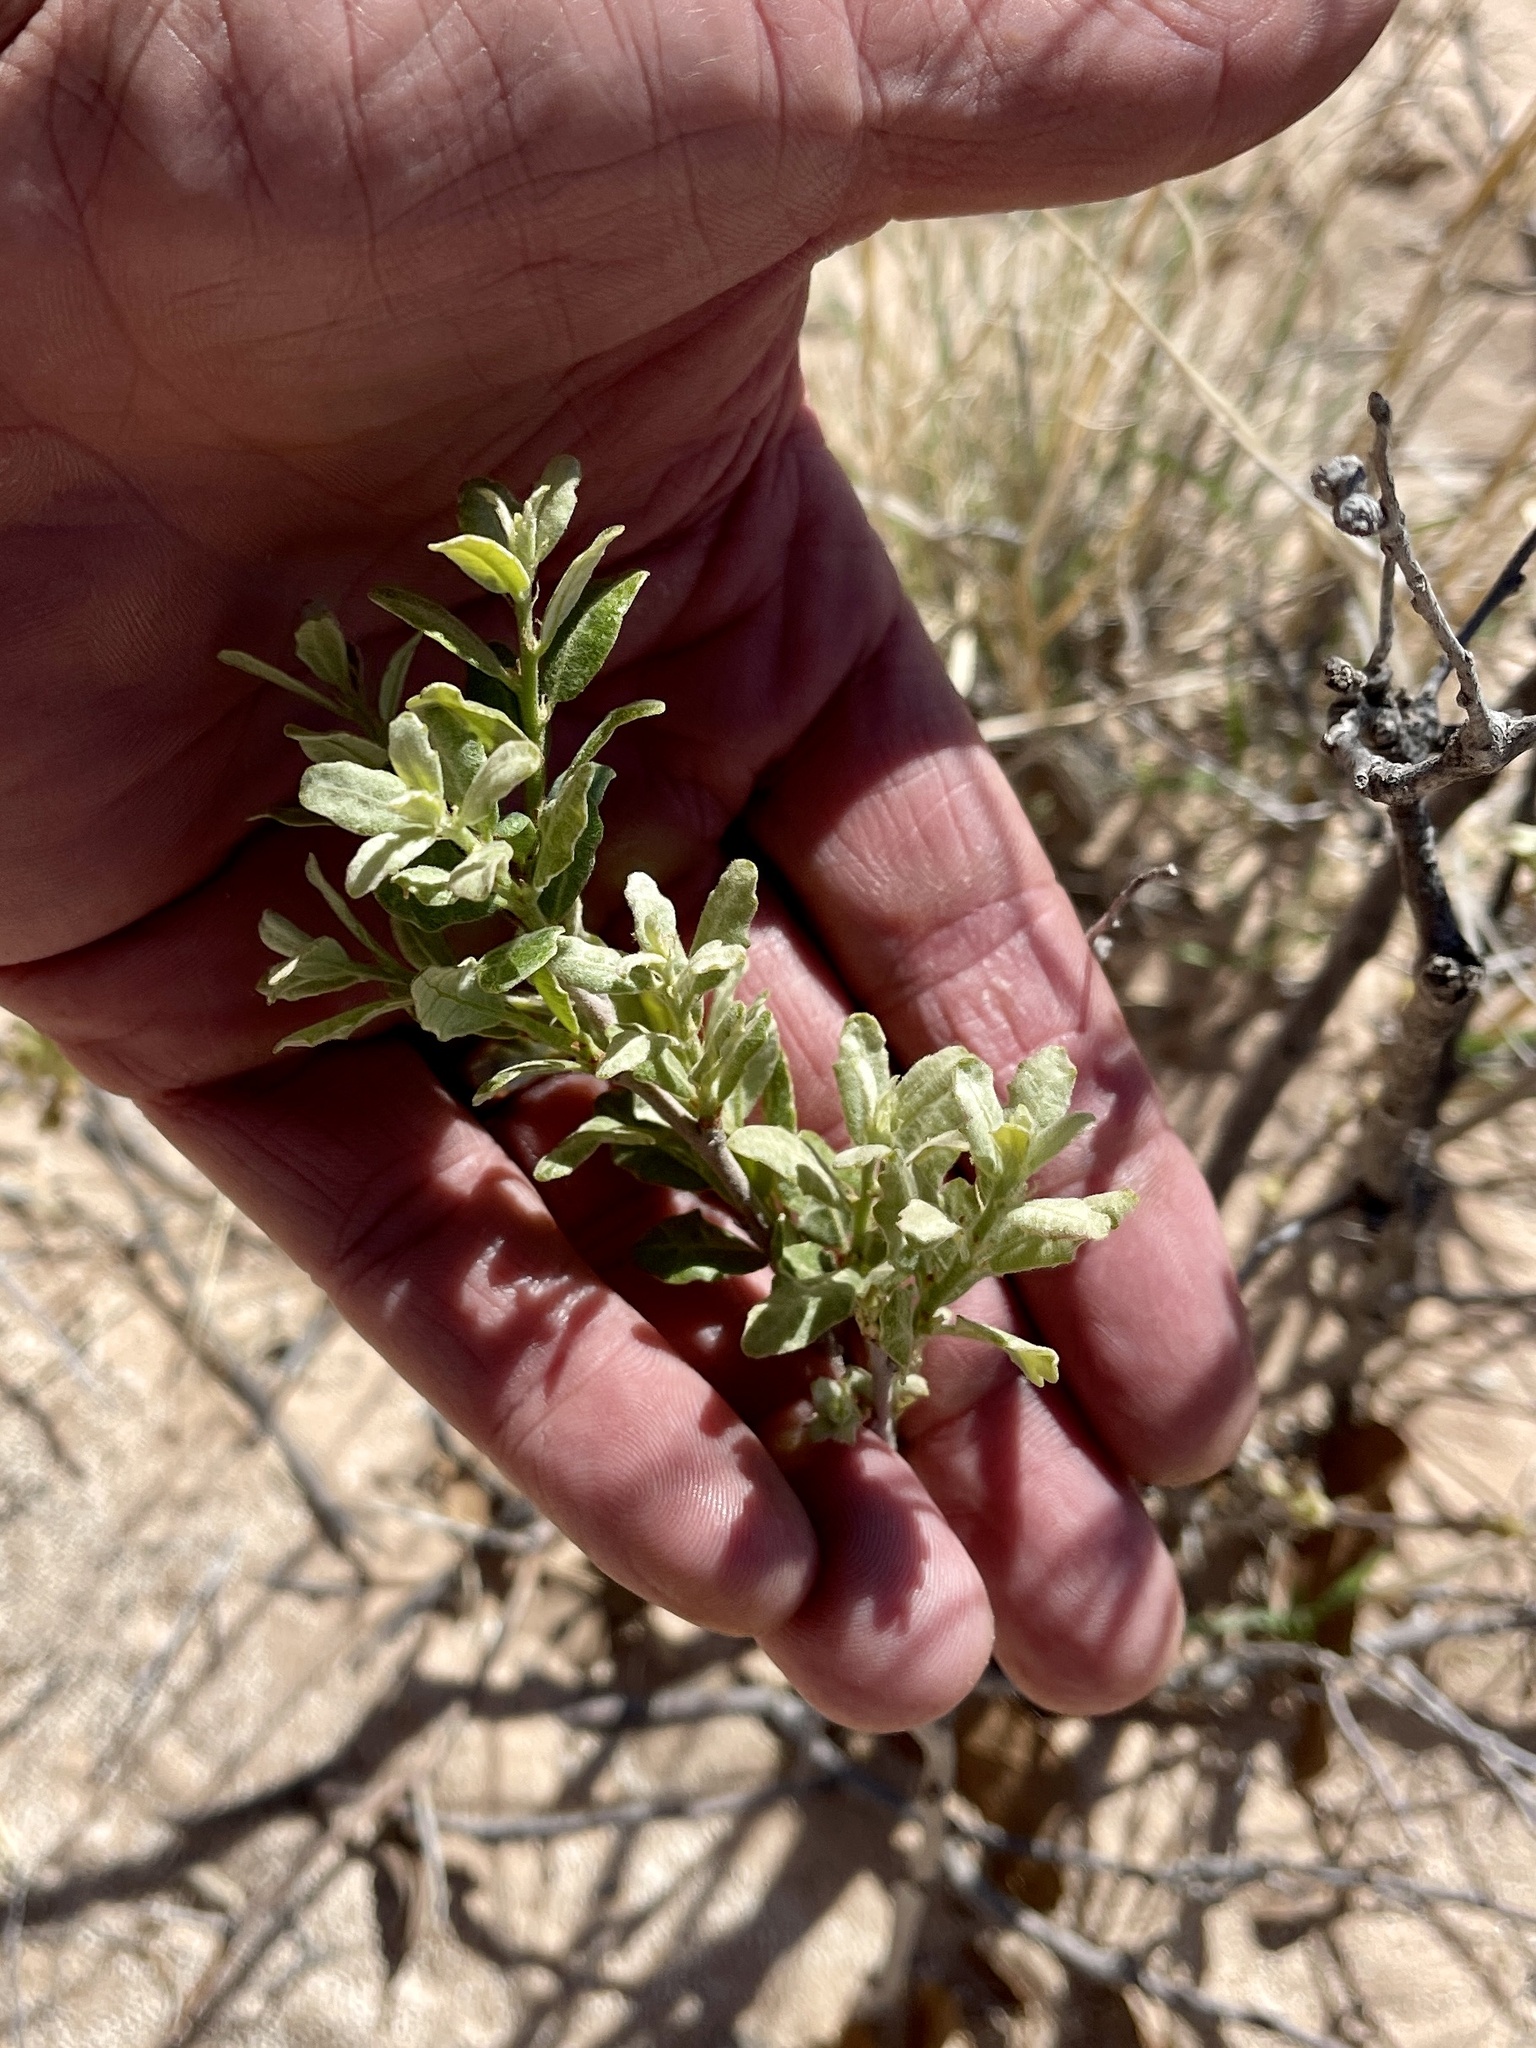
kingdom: Plantae
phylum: Tracheophyta
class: Magnoliopsida
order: Caryophyllales
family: Amaranthaceae
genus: Atriplex
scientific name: Atriplex canescens
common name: Four-wing saltbush
